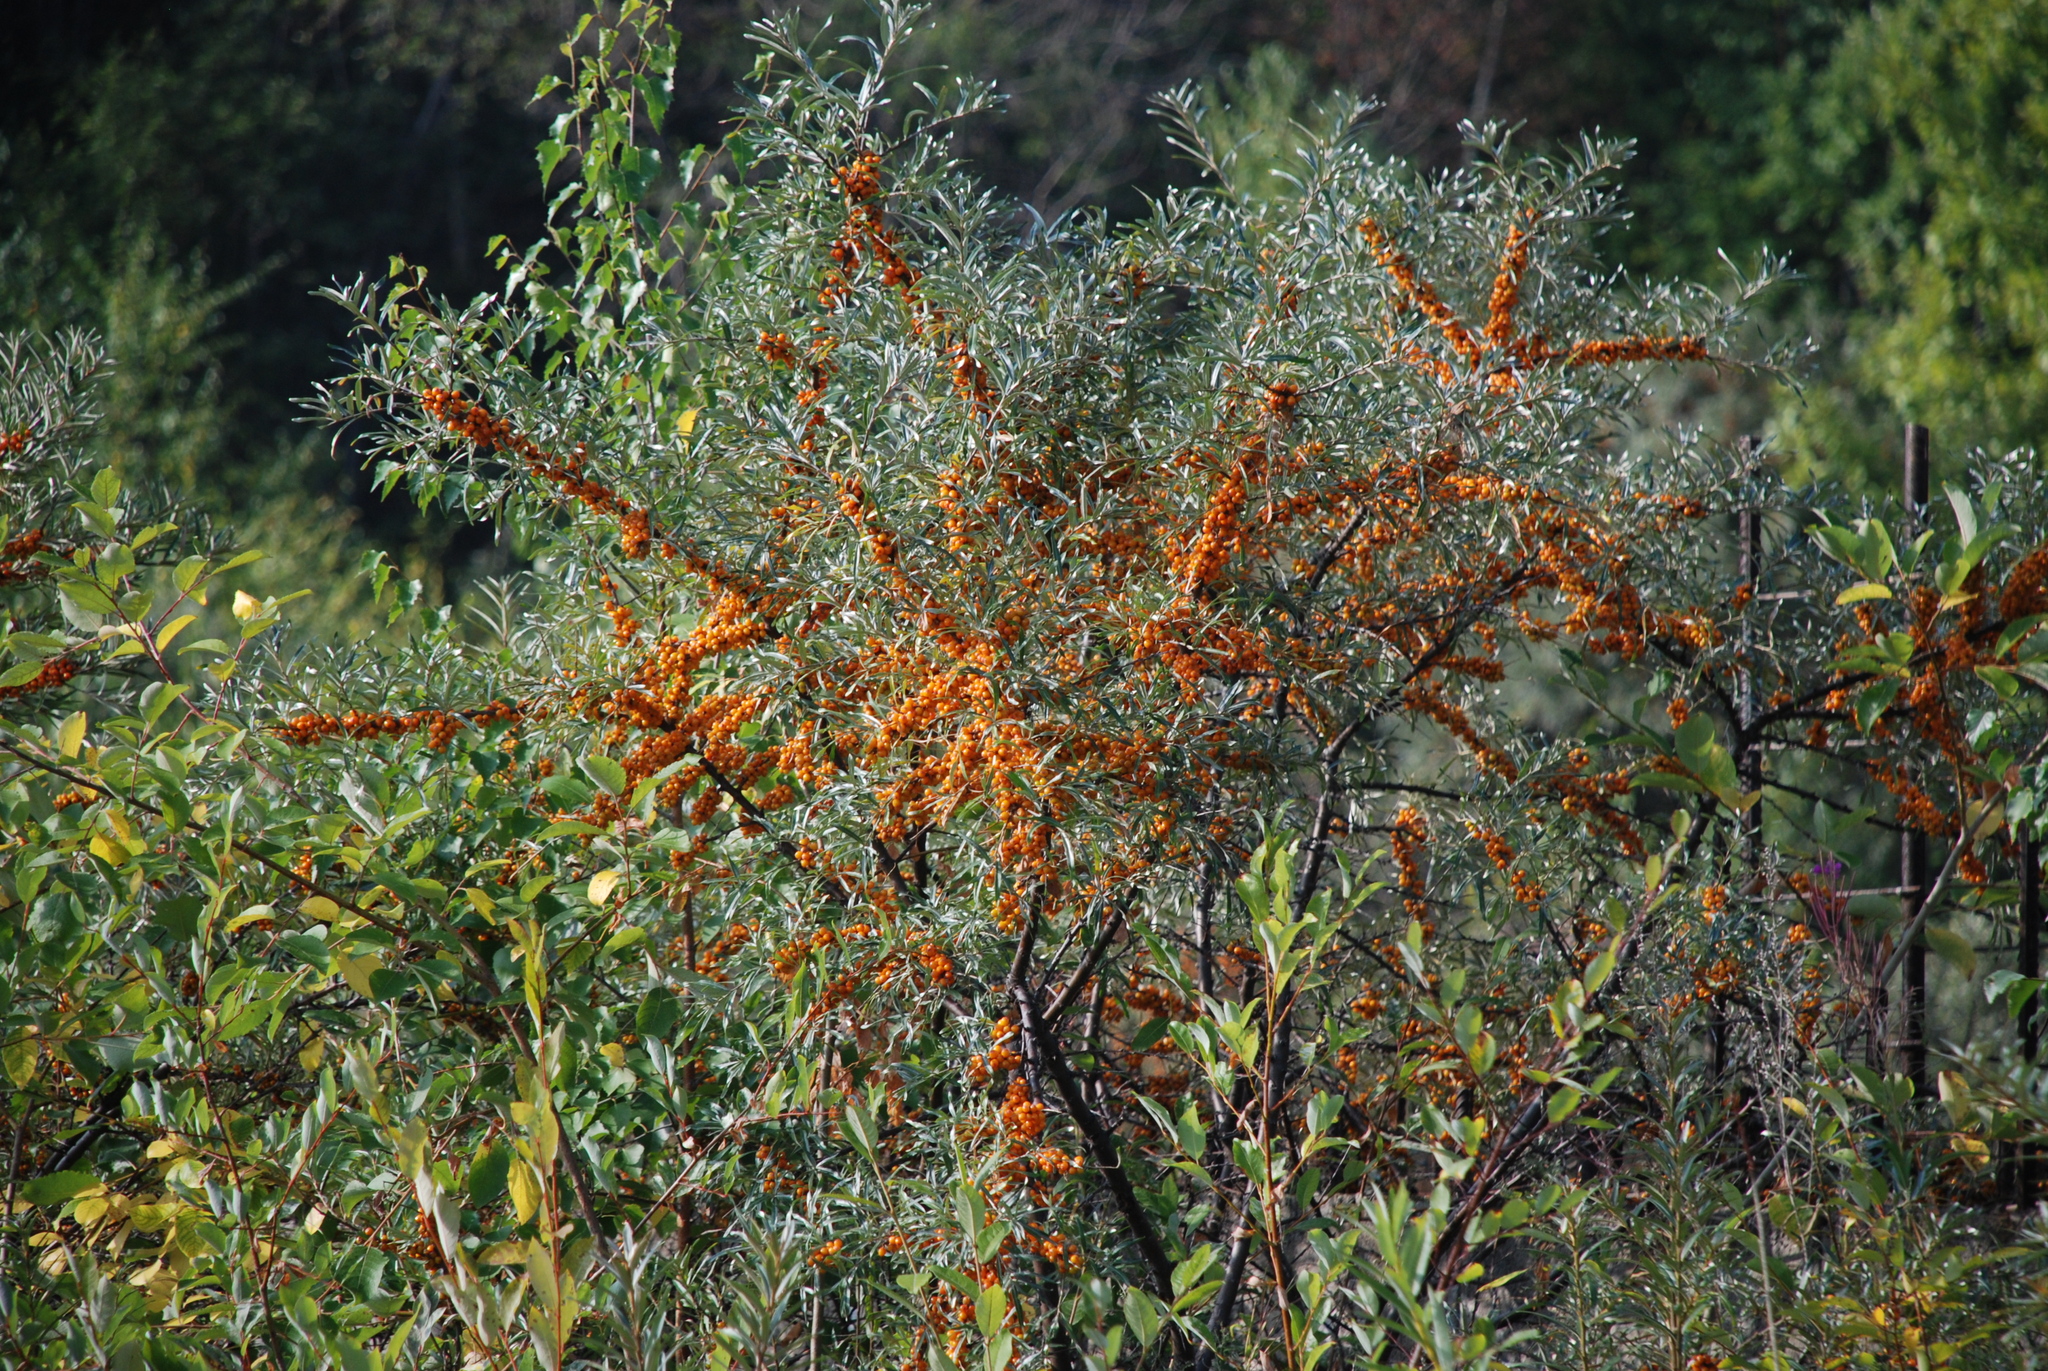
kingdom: Plantae
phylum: Tracheophyta
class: Magnoliopsida
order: Rosales
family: Elaeagnaceae
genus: Hippophae
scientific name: Hippophae rhamnoides
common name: Sea-buckthorn
